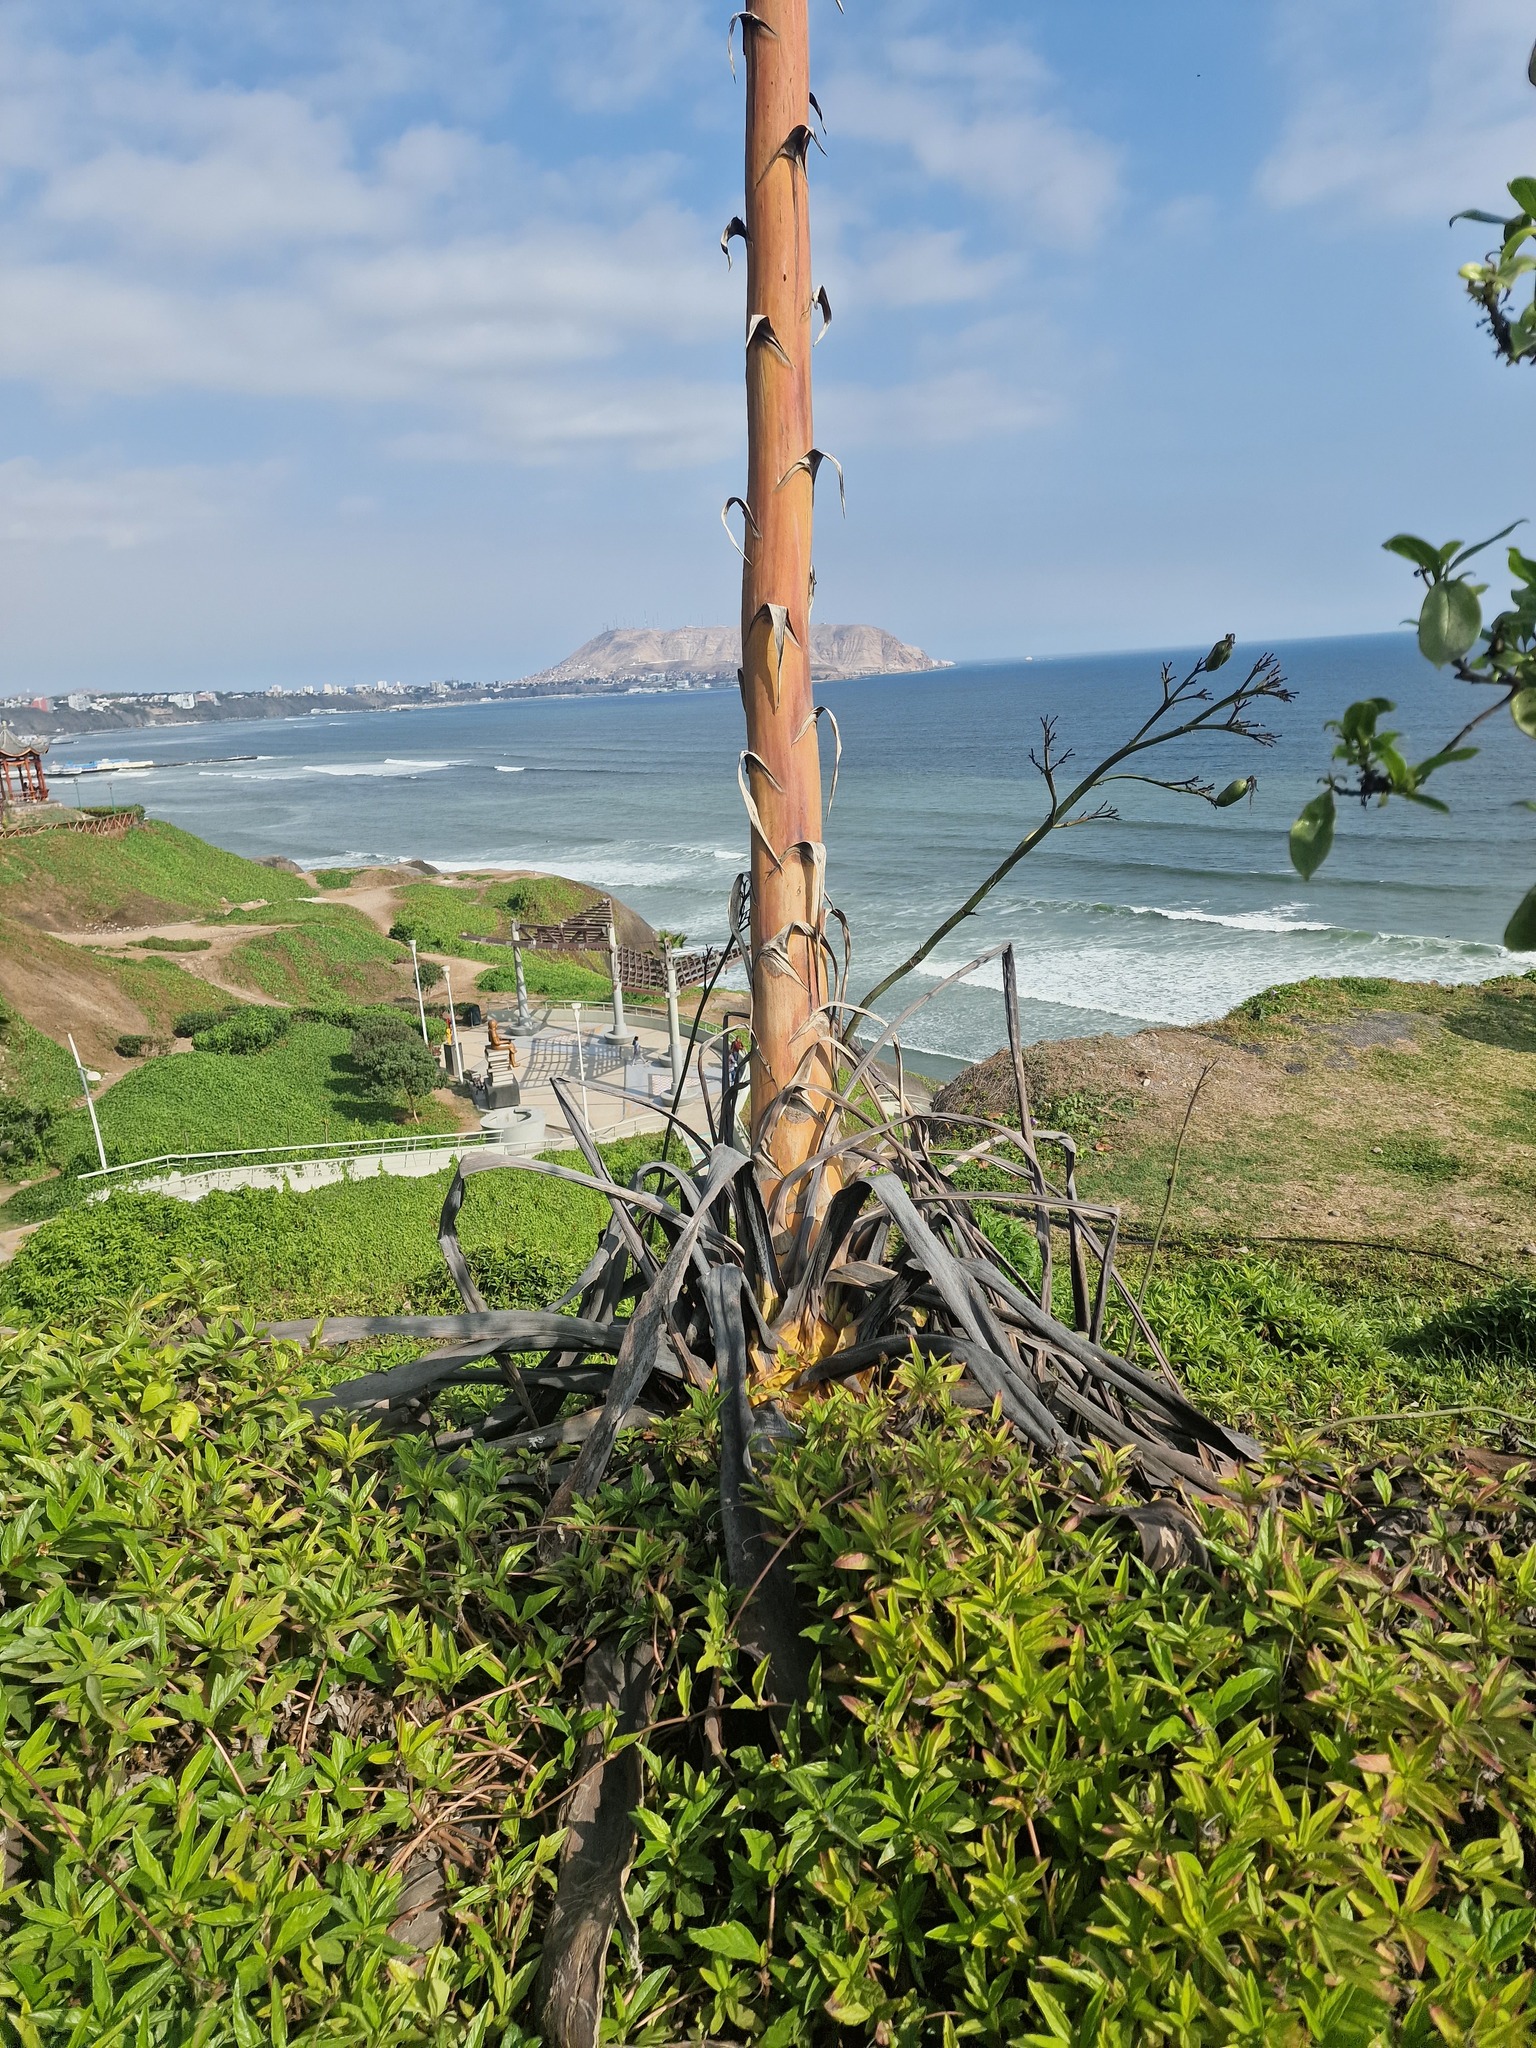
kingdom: Plantae
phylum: Tracheophyta
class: Liliopsida
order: Asparagales
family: Asparagaceae
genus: Agave
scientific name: Agave americana
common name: Centuryplant
